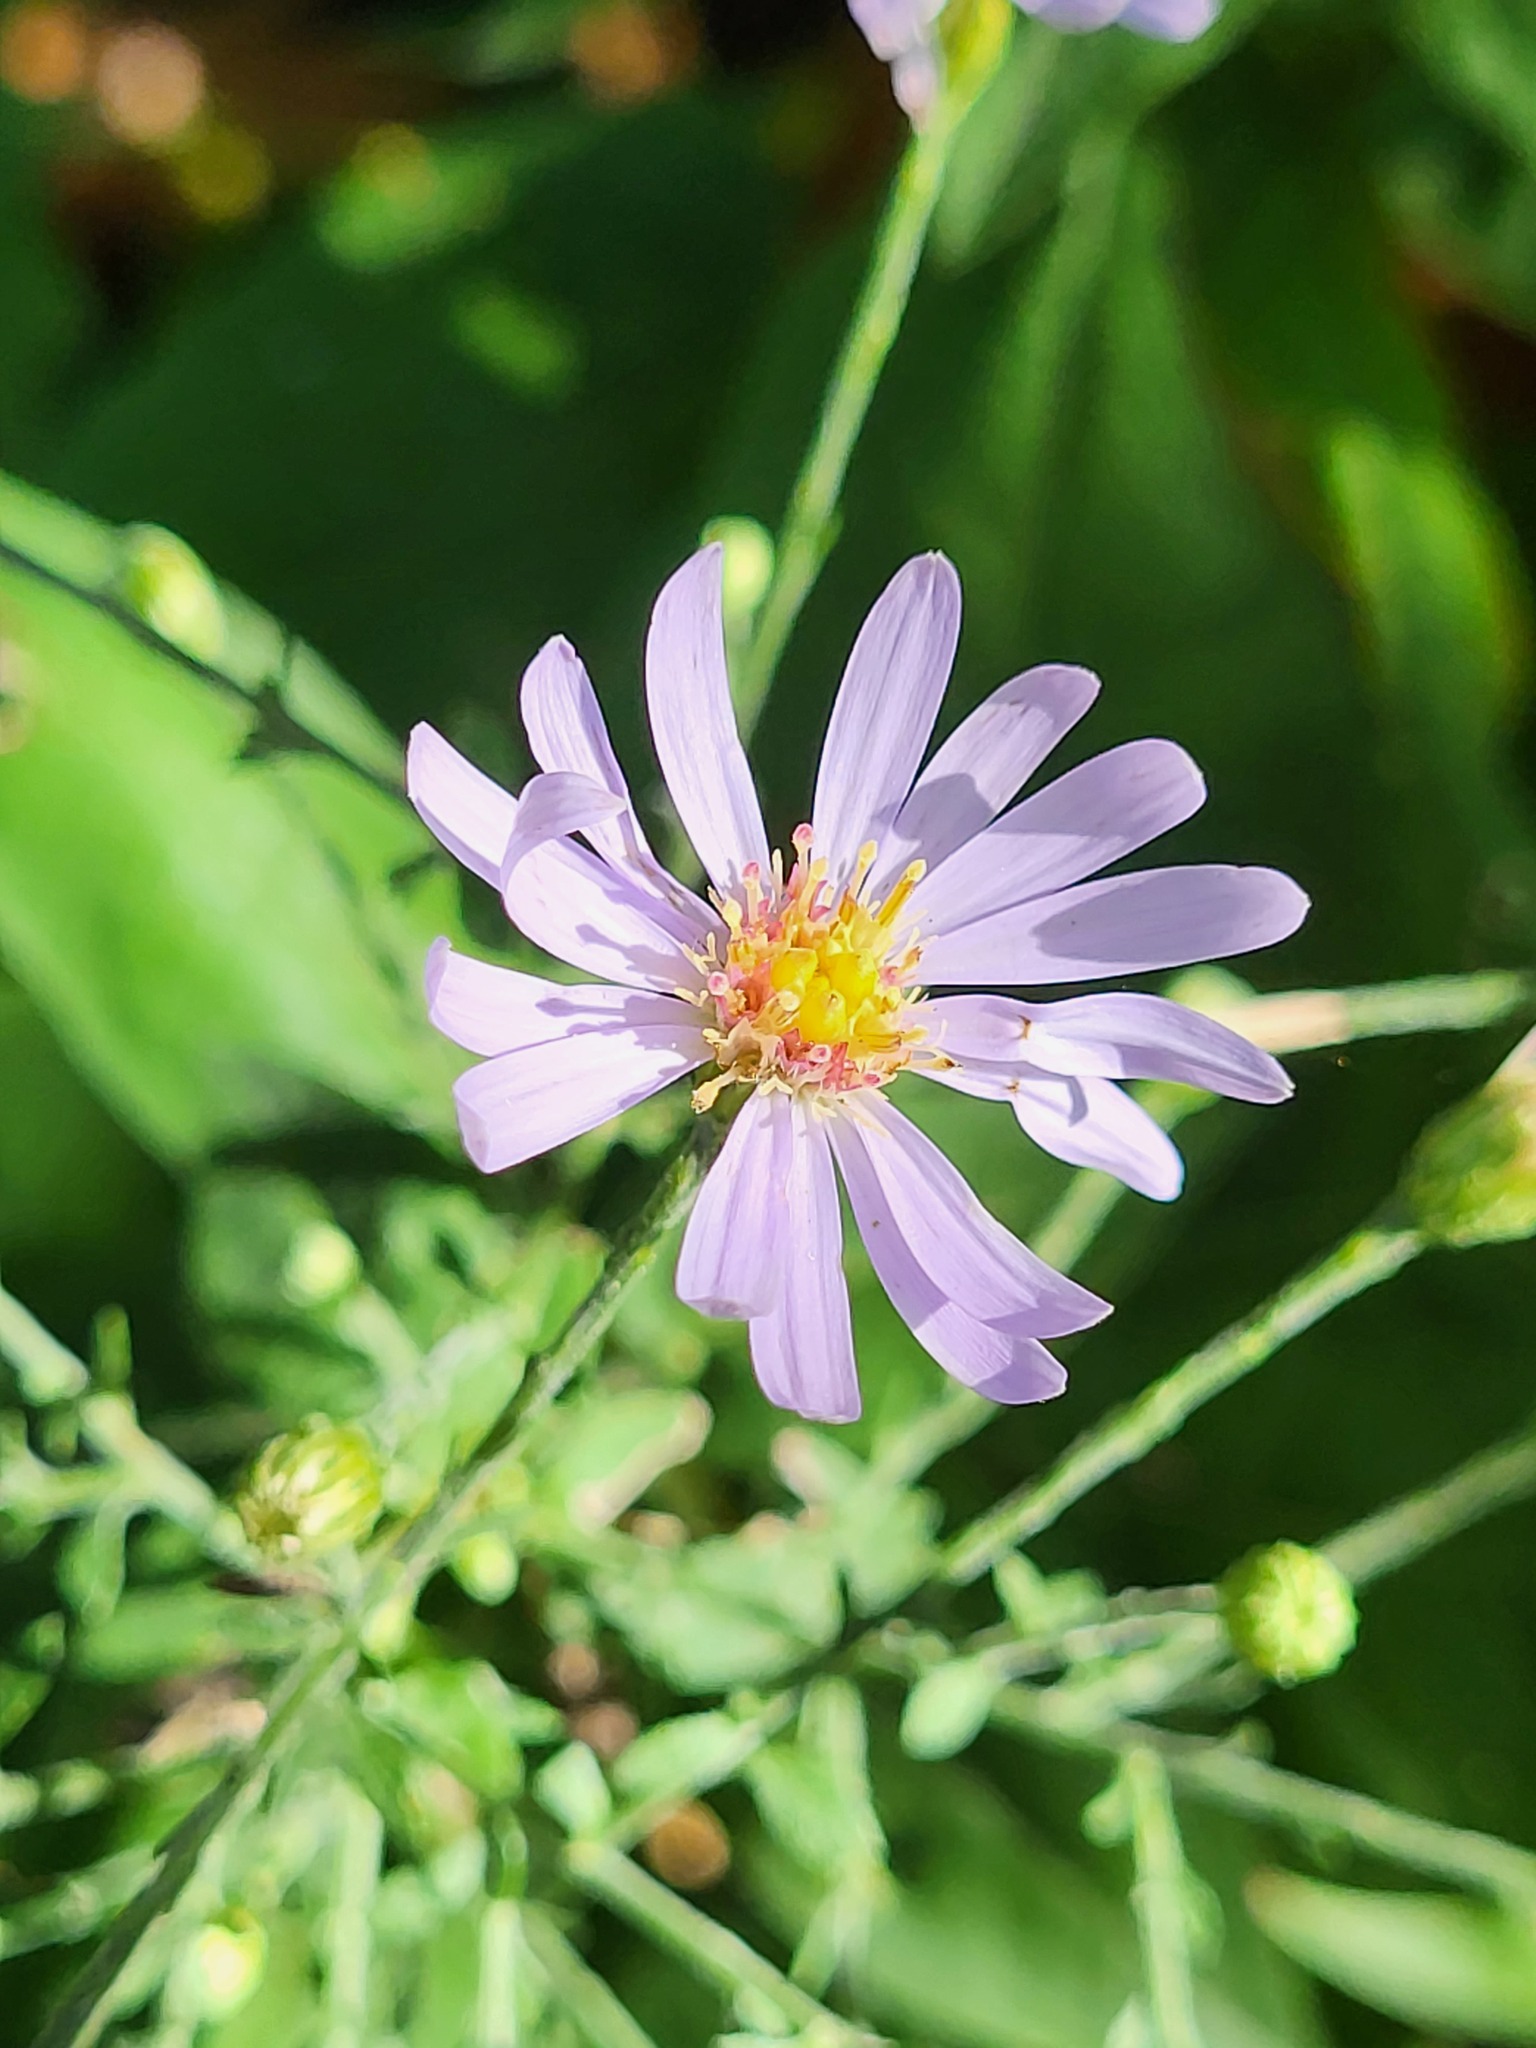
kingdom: Plantae
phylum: Tracheophyta
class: Magnoliopsida
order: Asterales
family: Asteraceae
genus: Symphyotrichum
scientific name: Symphyotrichum shortii
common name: Short's aster
